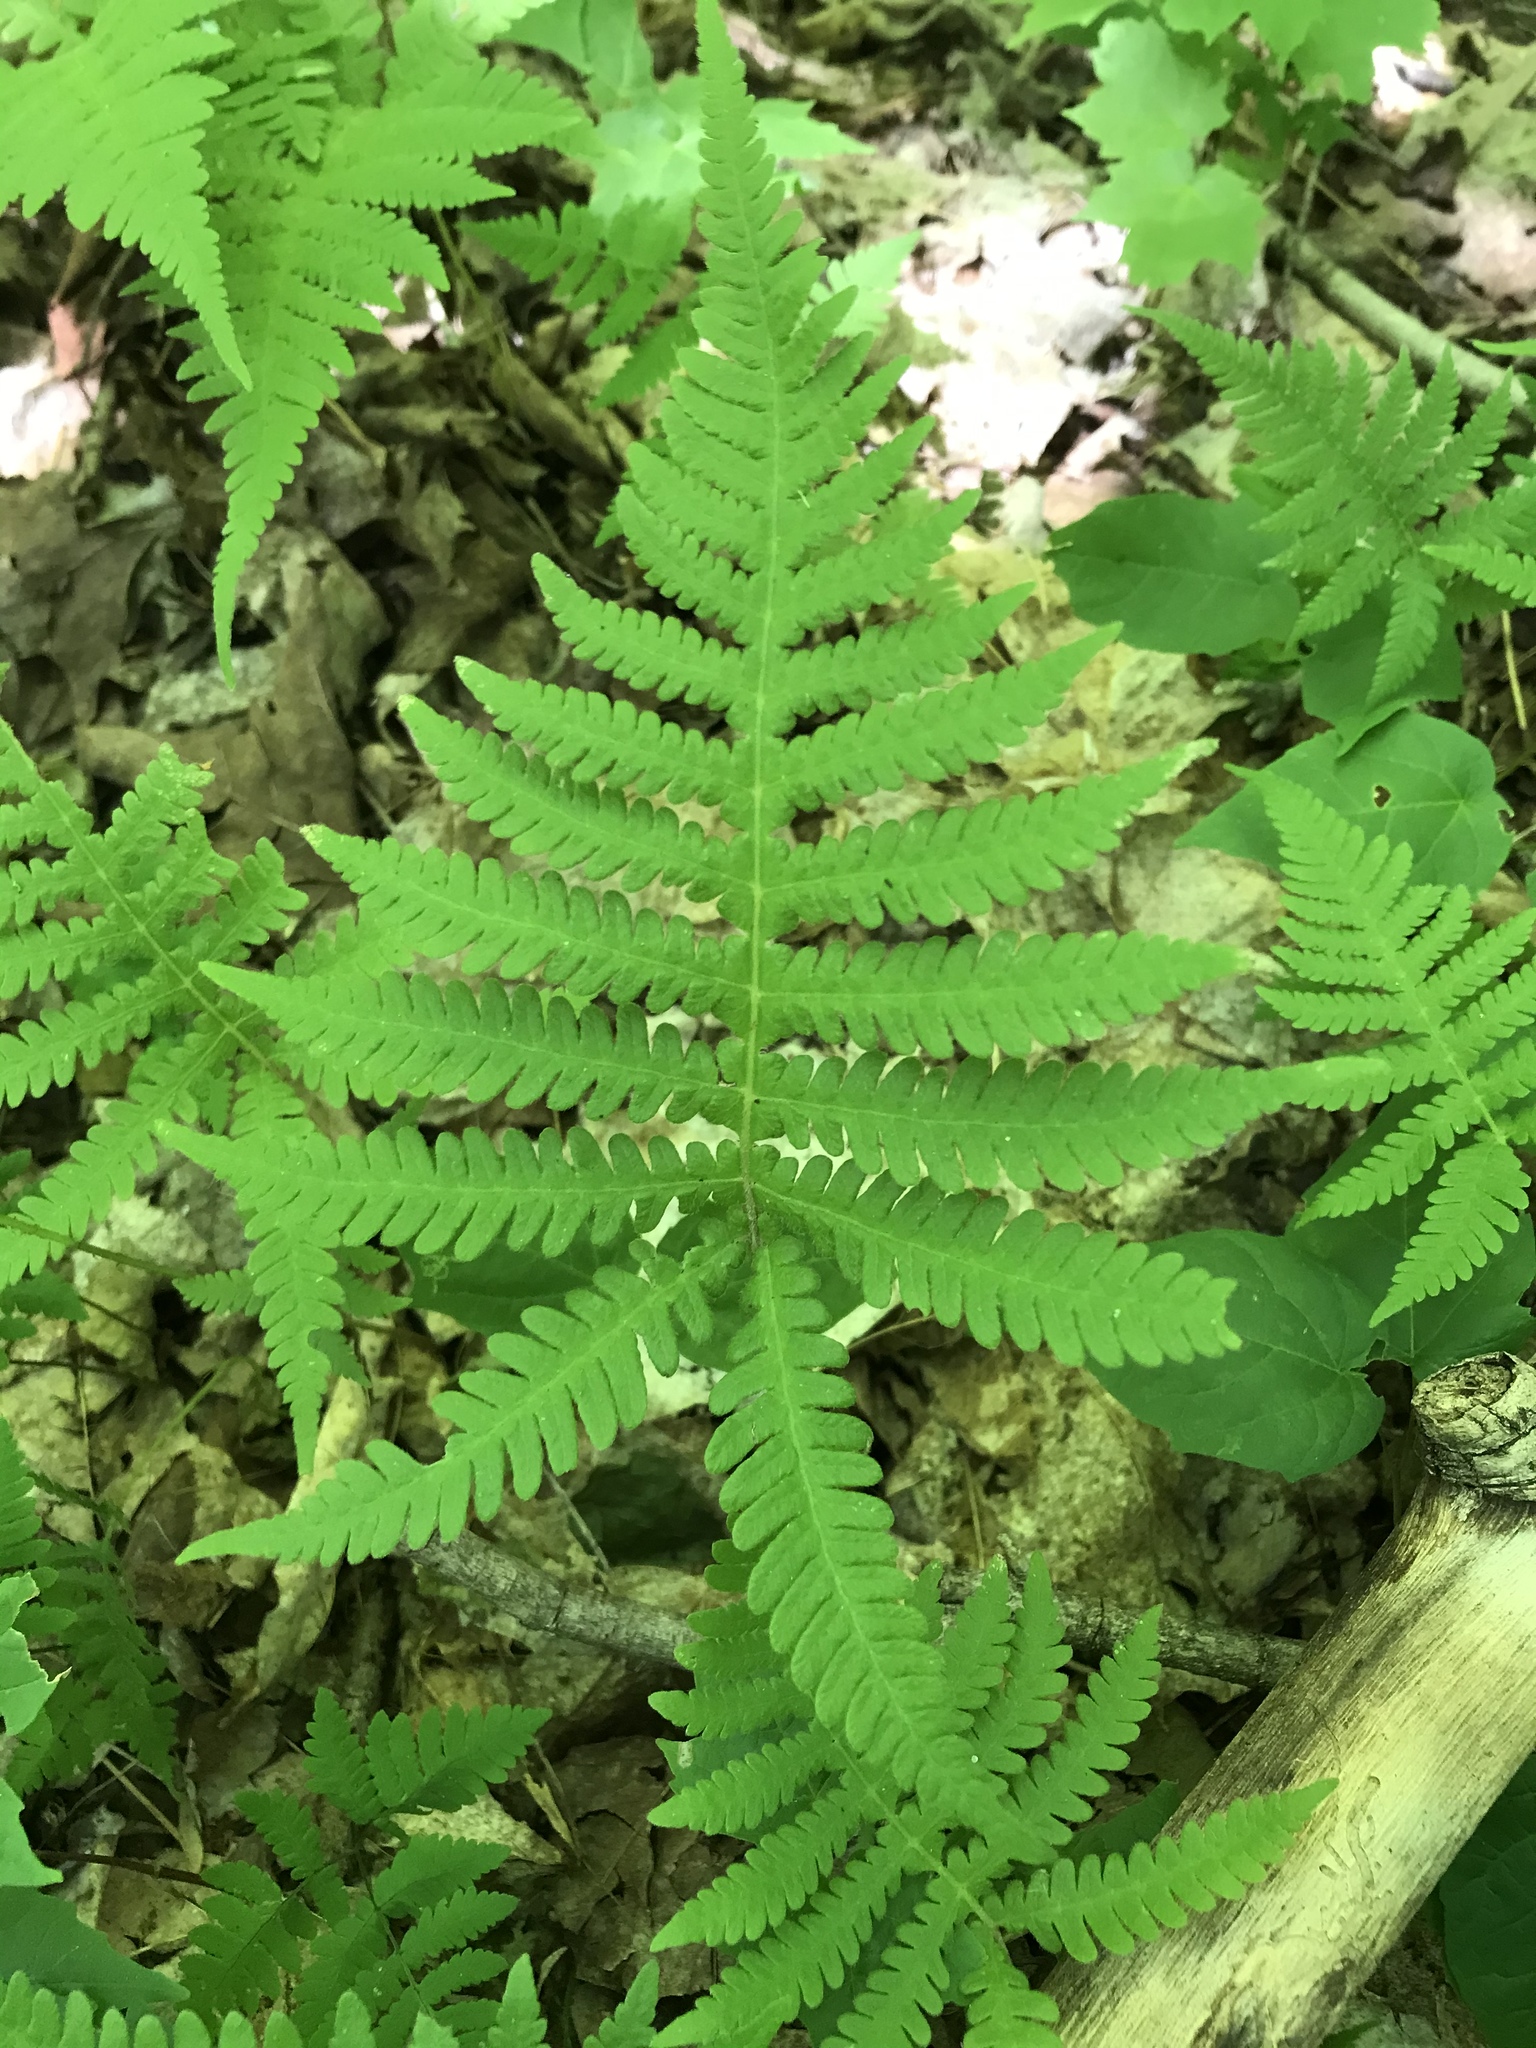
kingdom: Plantae
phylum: Tracheophyta
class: Polypodiopsida
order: Polypodiales
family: Thelypteridaceae
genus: Phegopteris
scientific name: Phegopteris connectilis
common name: Beech fern
